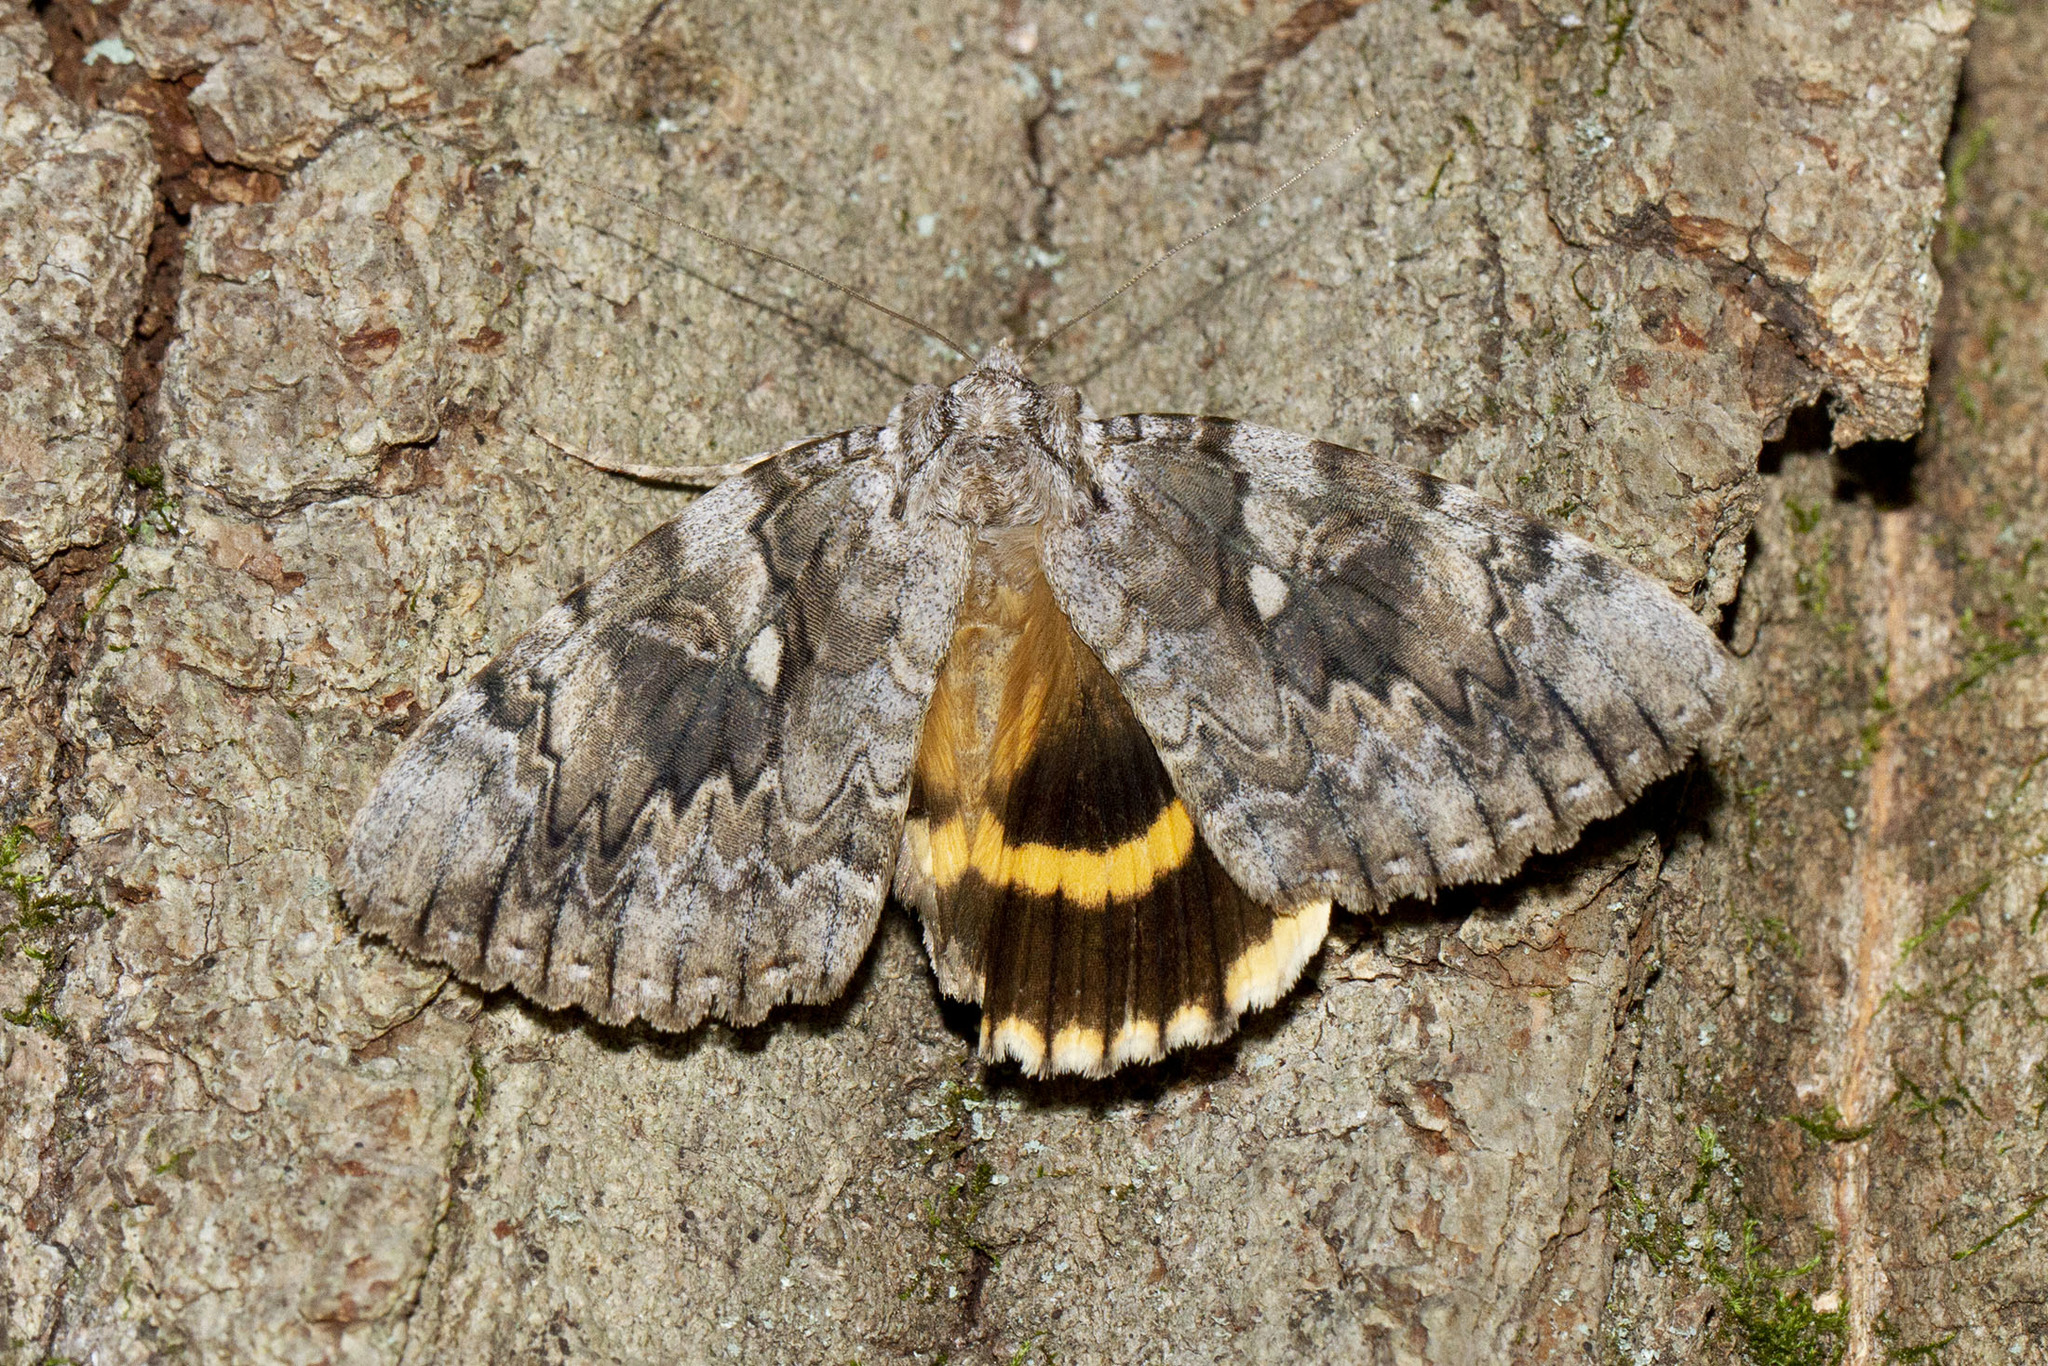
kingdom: Animalia
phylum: Arthropoda
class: Insecta
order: Lepidoptera
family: Erebidae
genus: Catocala
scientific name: Catocala cerogama
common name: Yellow banded underwing
